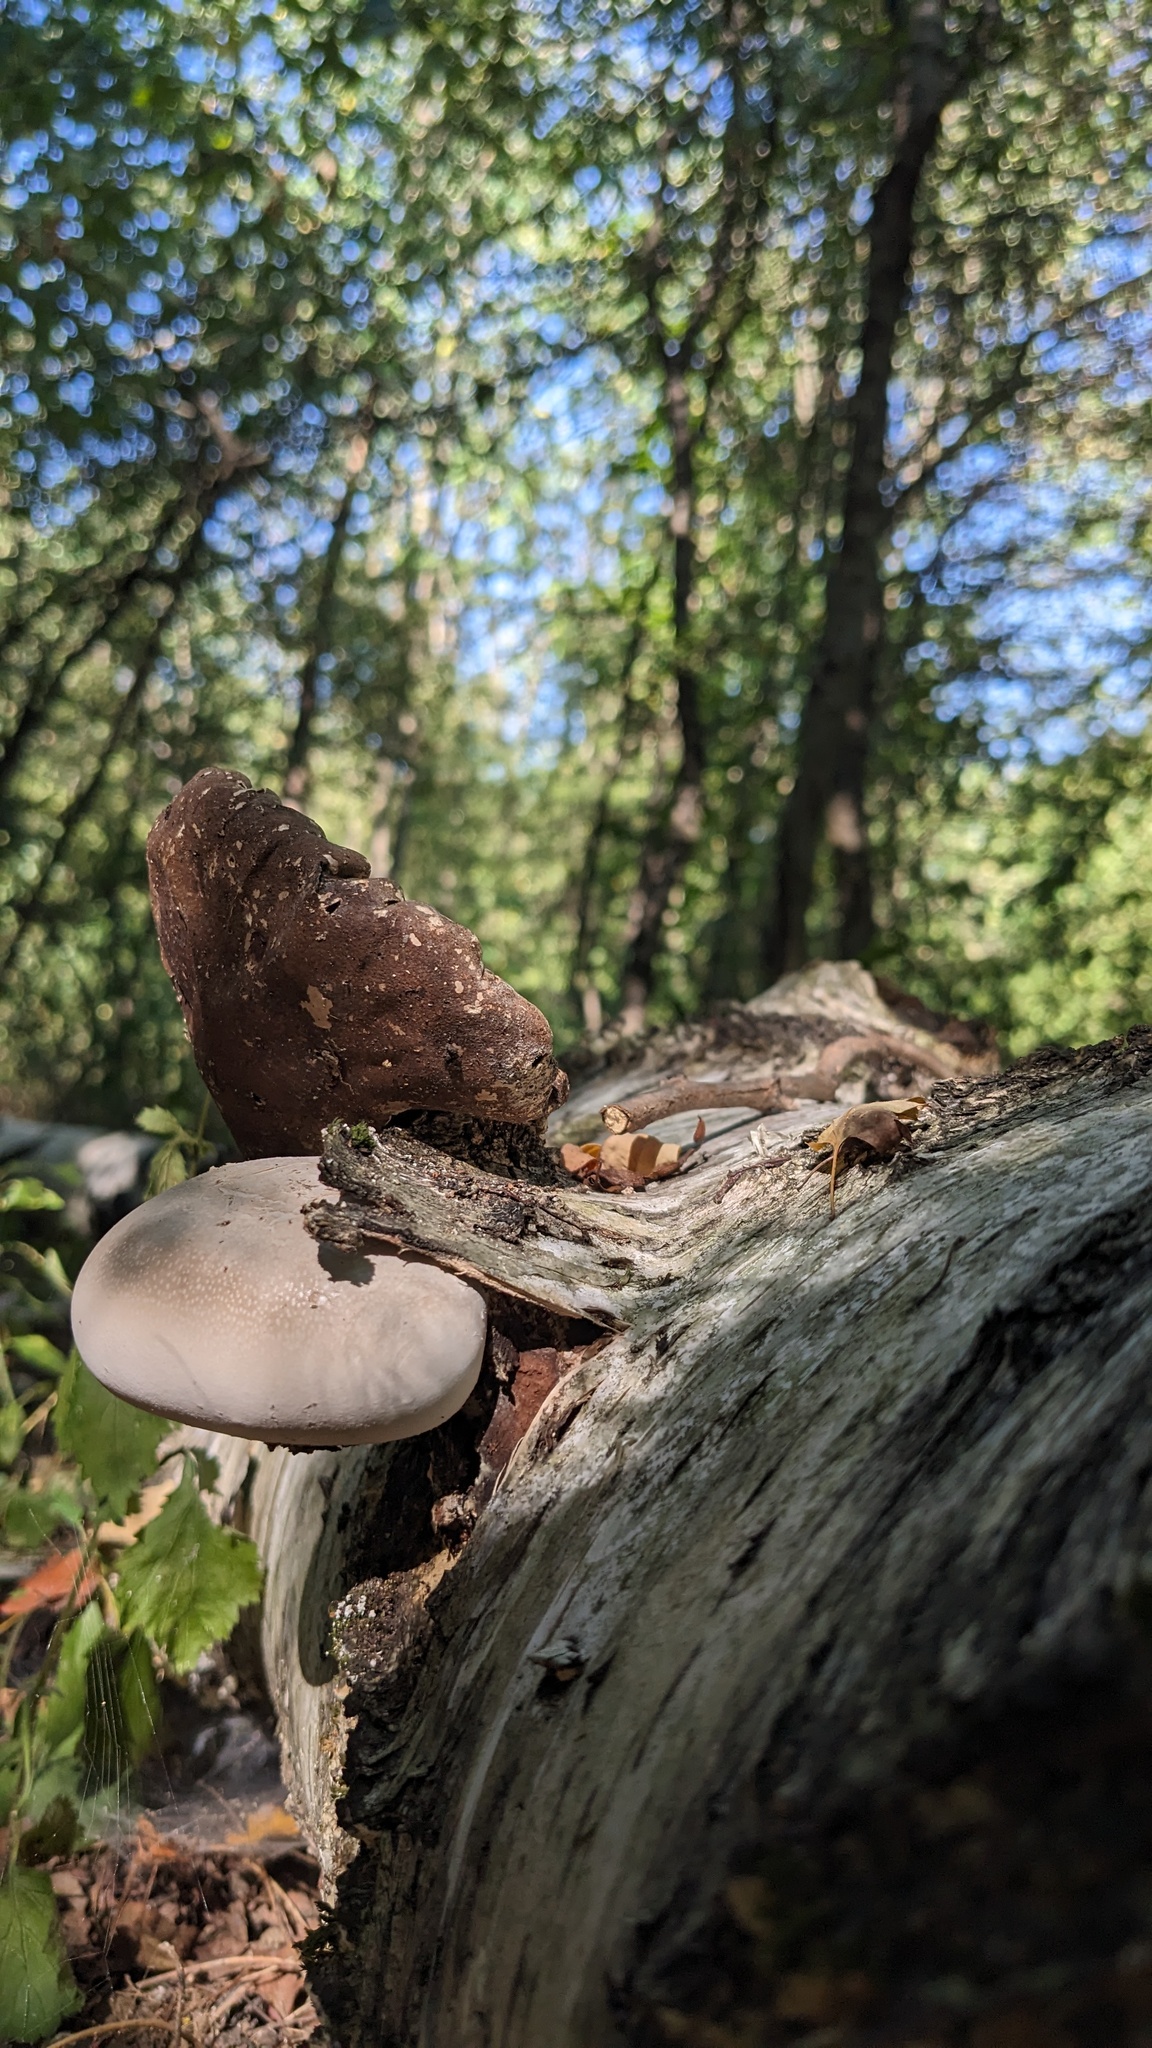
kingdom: Fungi
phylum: Basidiomycota
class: Agaricomycetes
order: Polyporales
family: Fomitopsidaceae
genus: Fomitopsis
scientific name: Fomitopsis betulina
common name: Birch polypore
